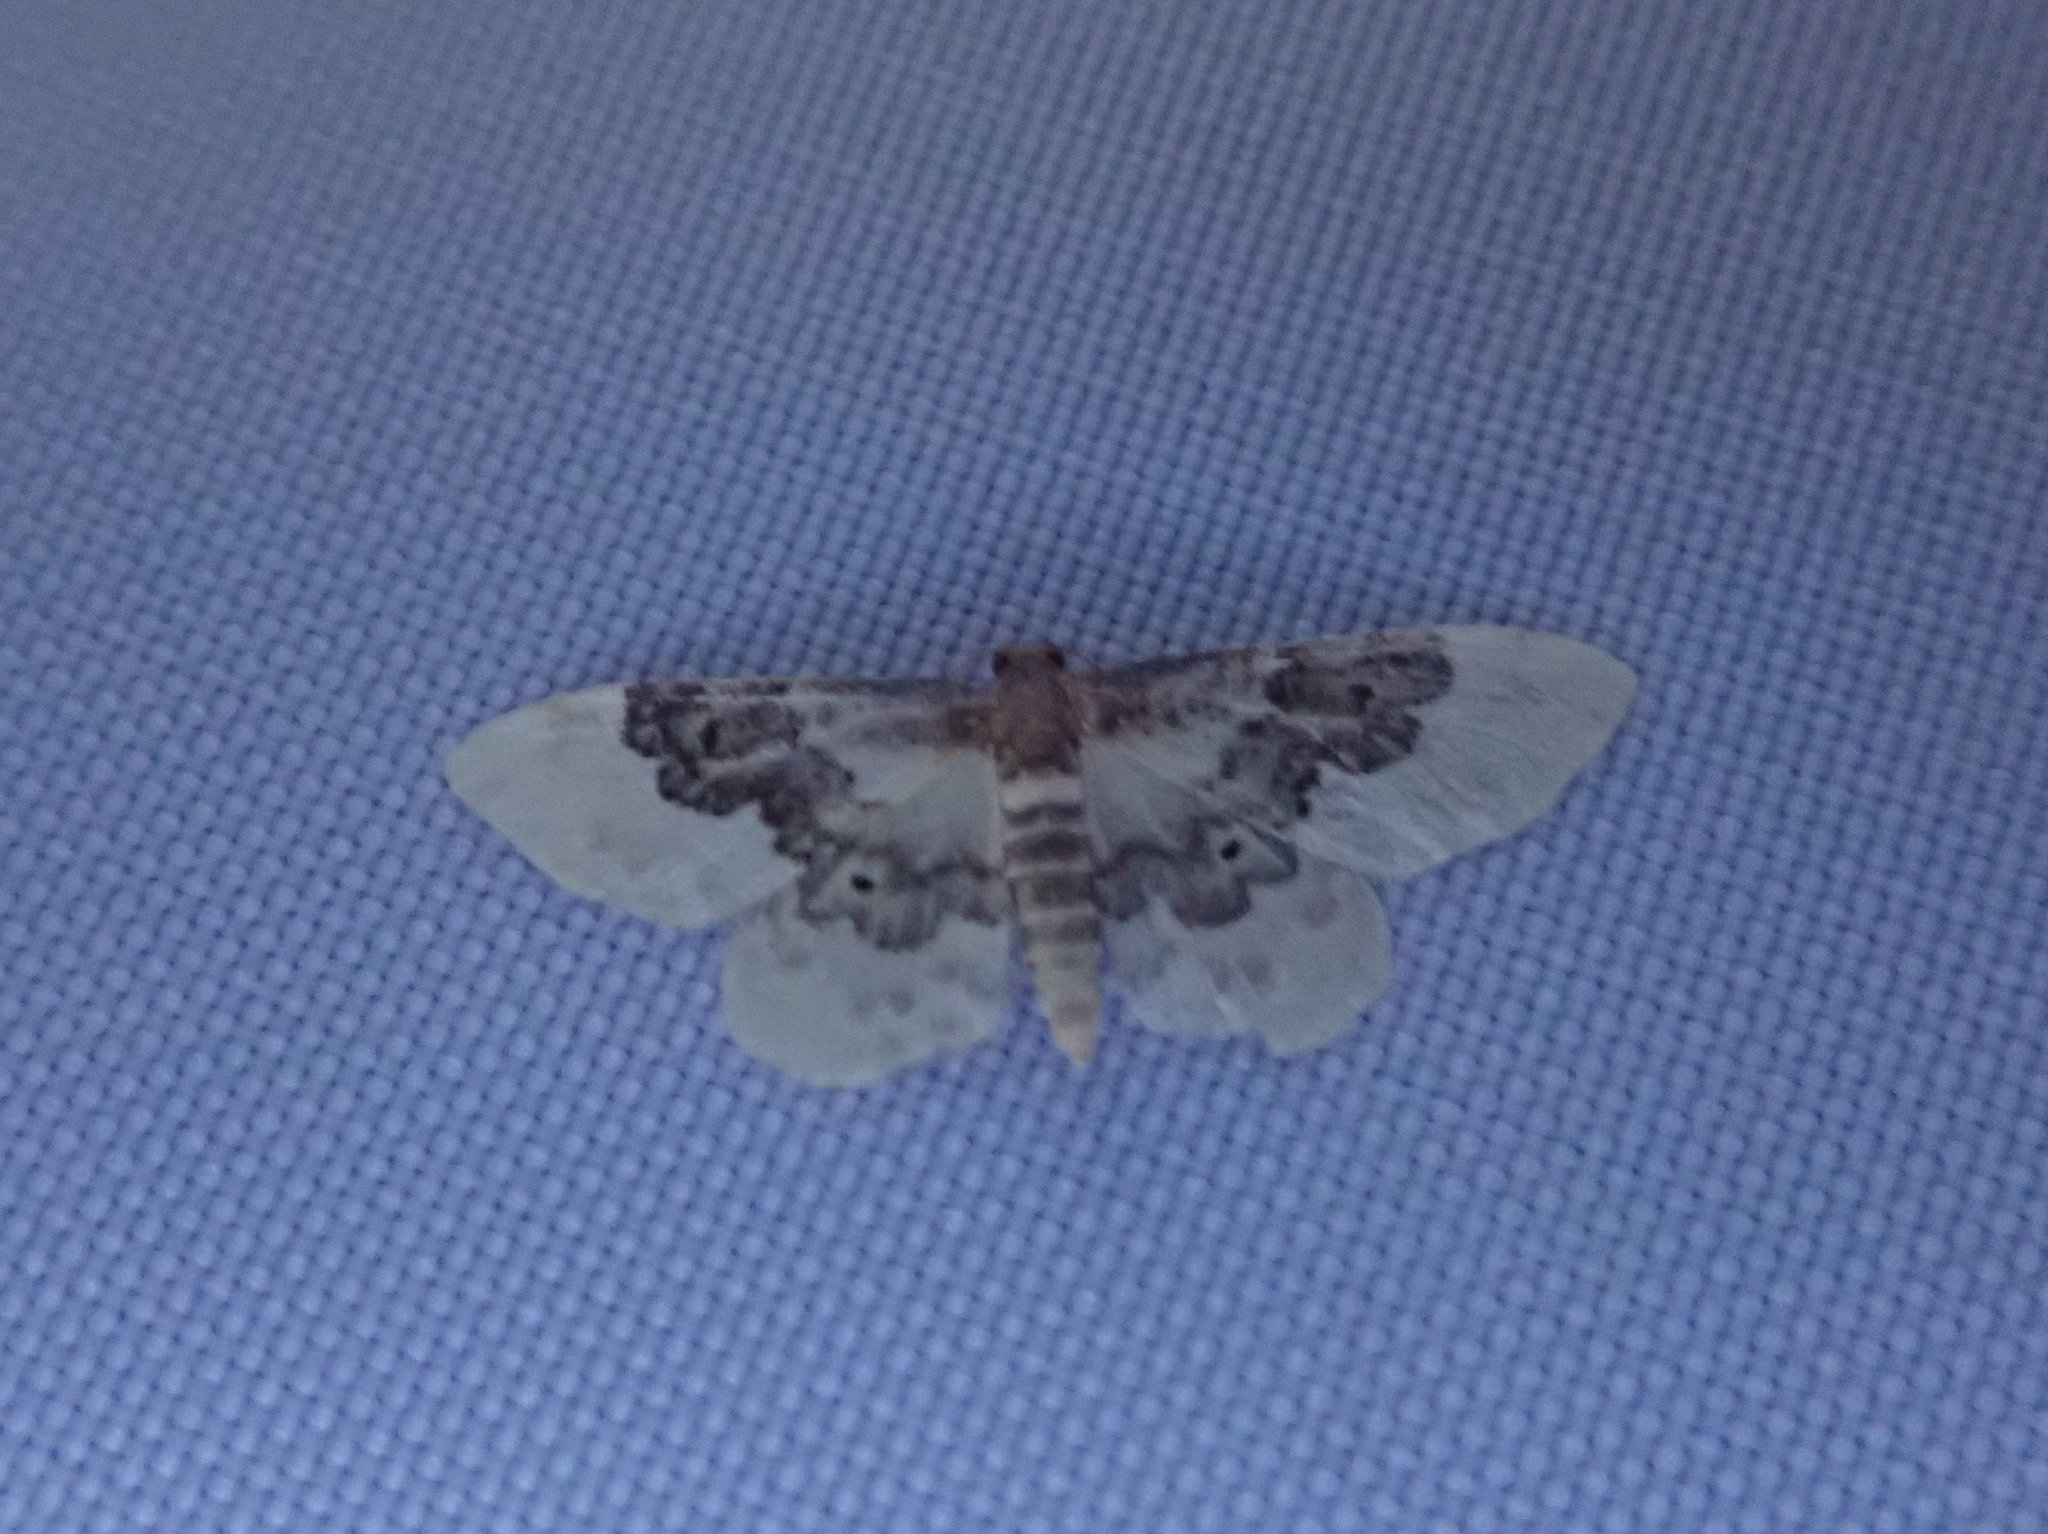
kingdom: Animalia
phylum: Arthropoda
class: Insecta
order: Lepidoptera
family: Geometridae
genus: Idaea
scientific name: Idaea rusticata
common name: Least carpet
